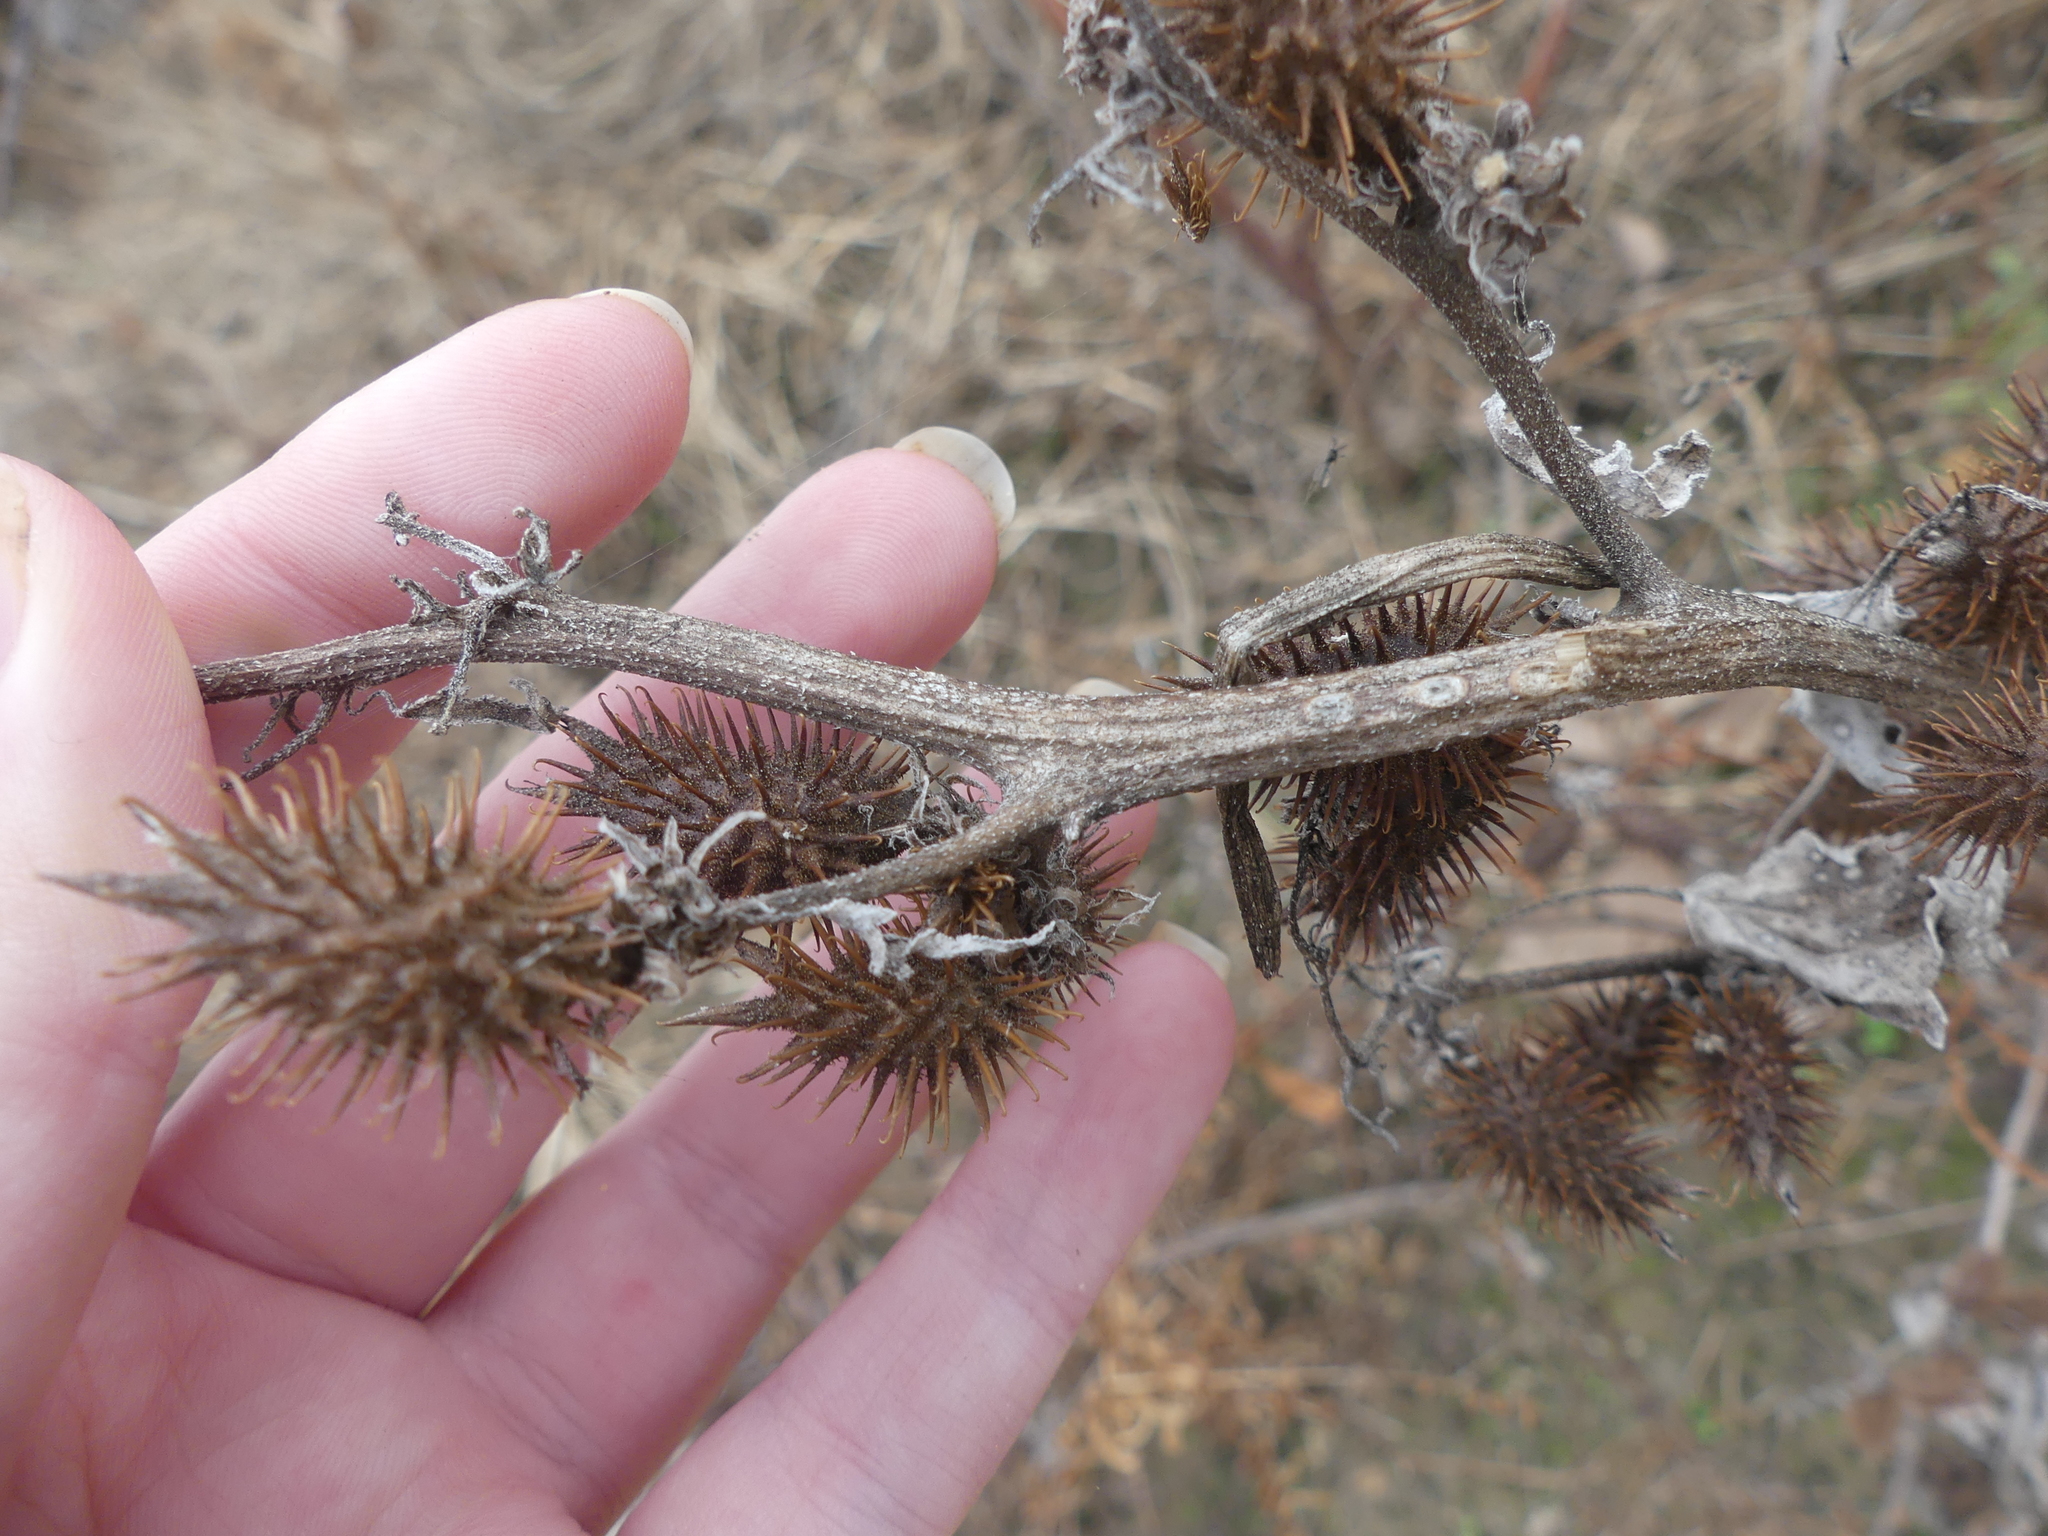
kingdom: Plantae
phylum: Tracheophyta
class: Magnoliopsida
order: Asterales
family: Asteraceae
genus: Xanthium
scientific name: Xanthium strumarium
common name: Rough cocklebur
